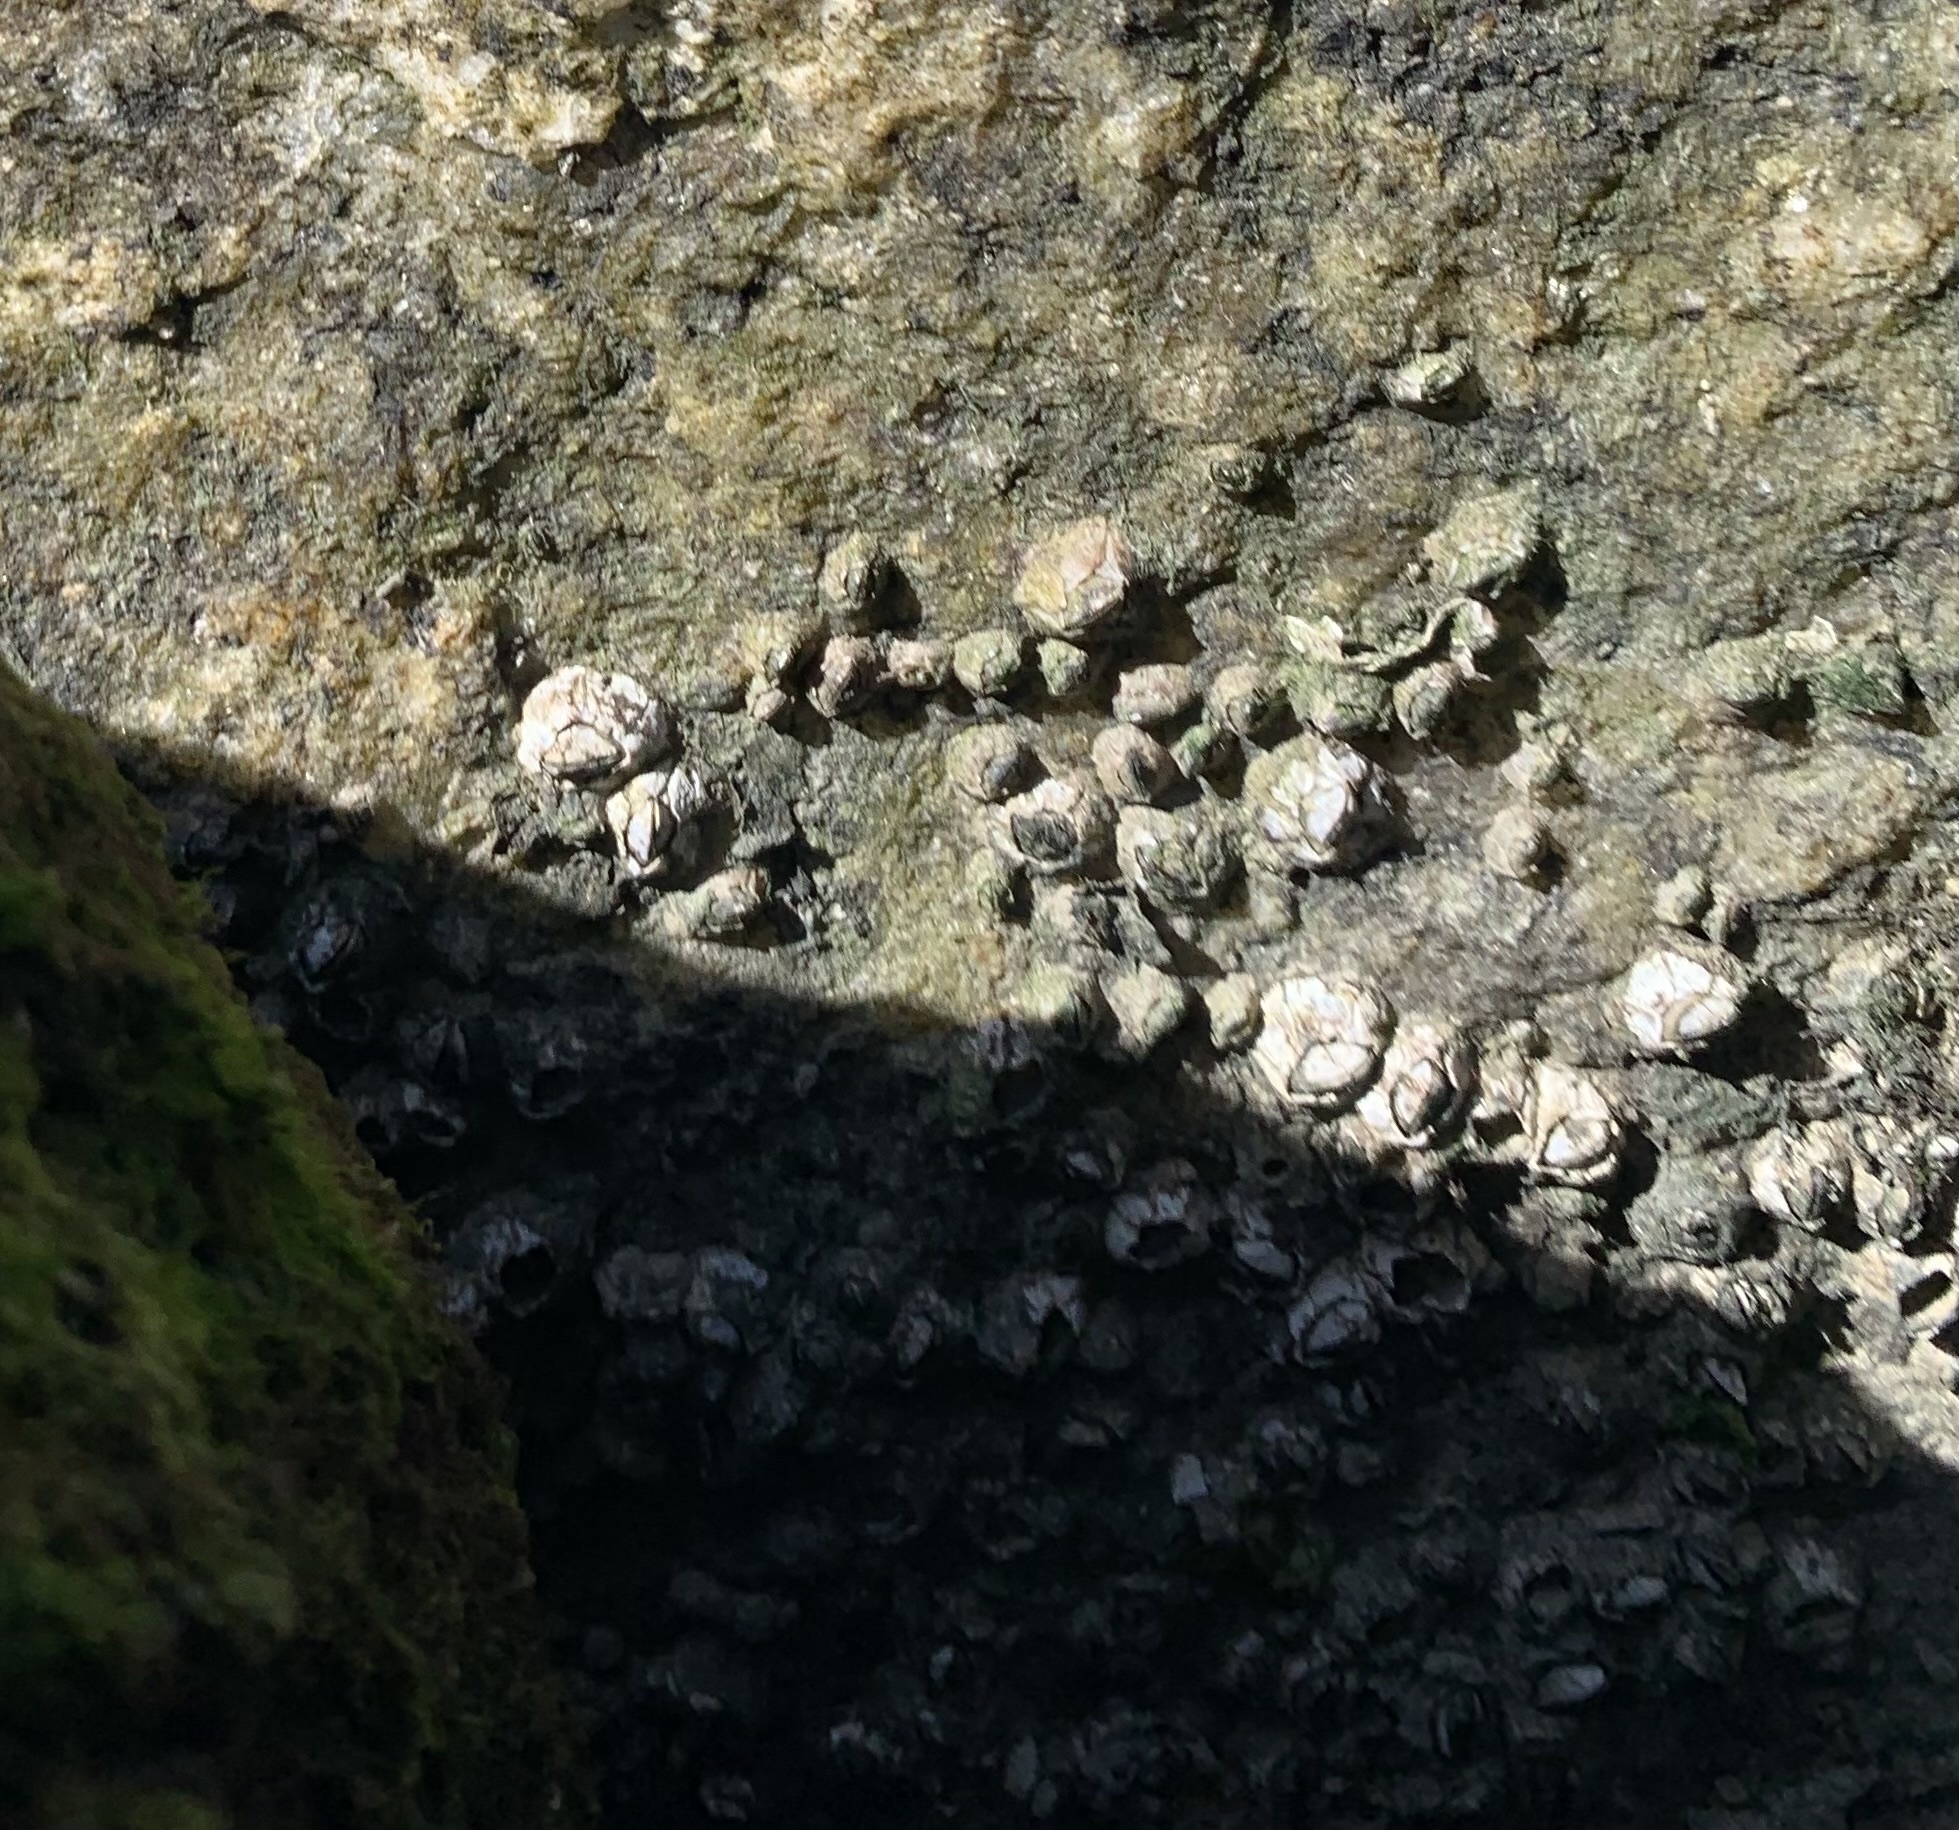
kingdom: Animalia
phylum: Arthropoda
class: Maxillopoda
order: Sessilia
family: Chthamalidae
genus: Chthamalus
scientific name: Chthamalus fragilis
